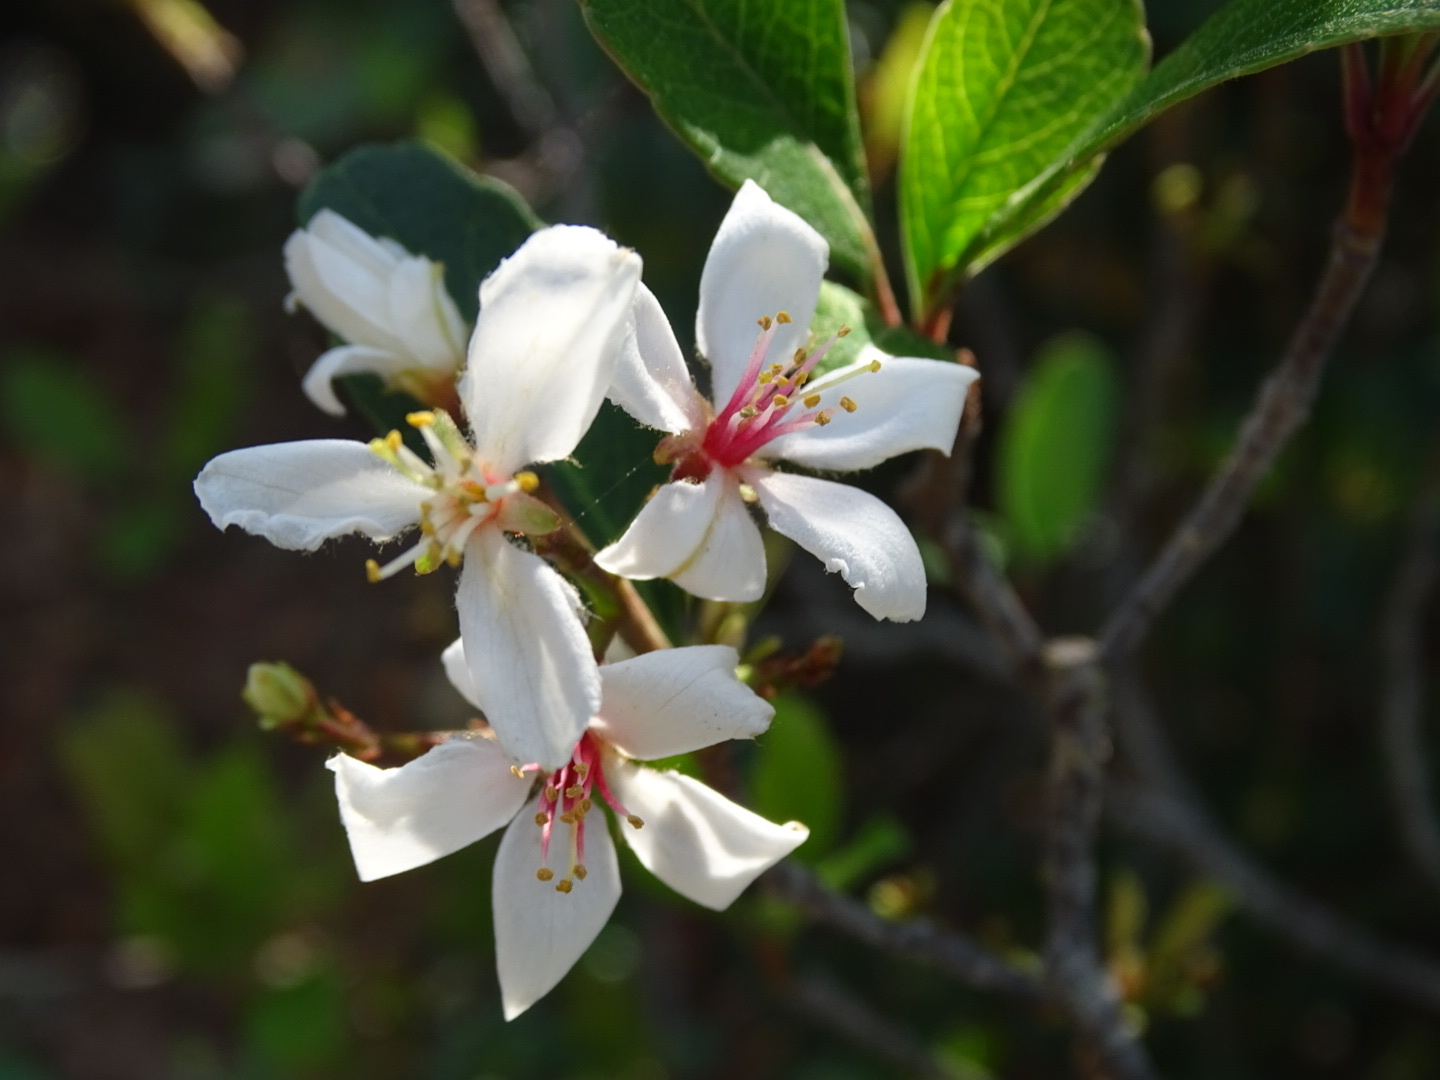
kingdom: Plantae
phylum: Tracheophyta
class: Magnoliopsida
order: Rosales
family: Rosaceae
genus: Rhaphiolepis
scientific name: Rhaphiolepis indica
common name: India-hawthorn
